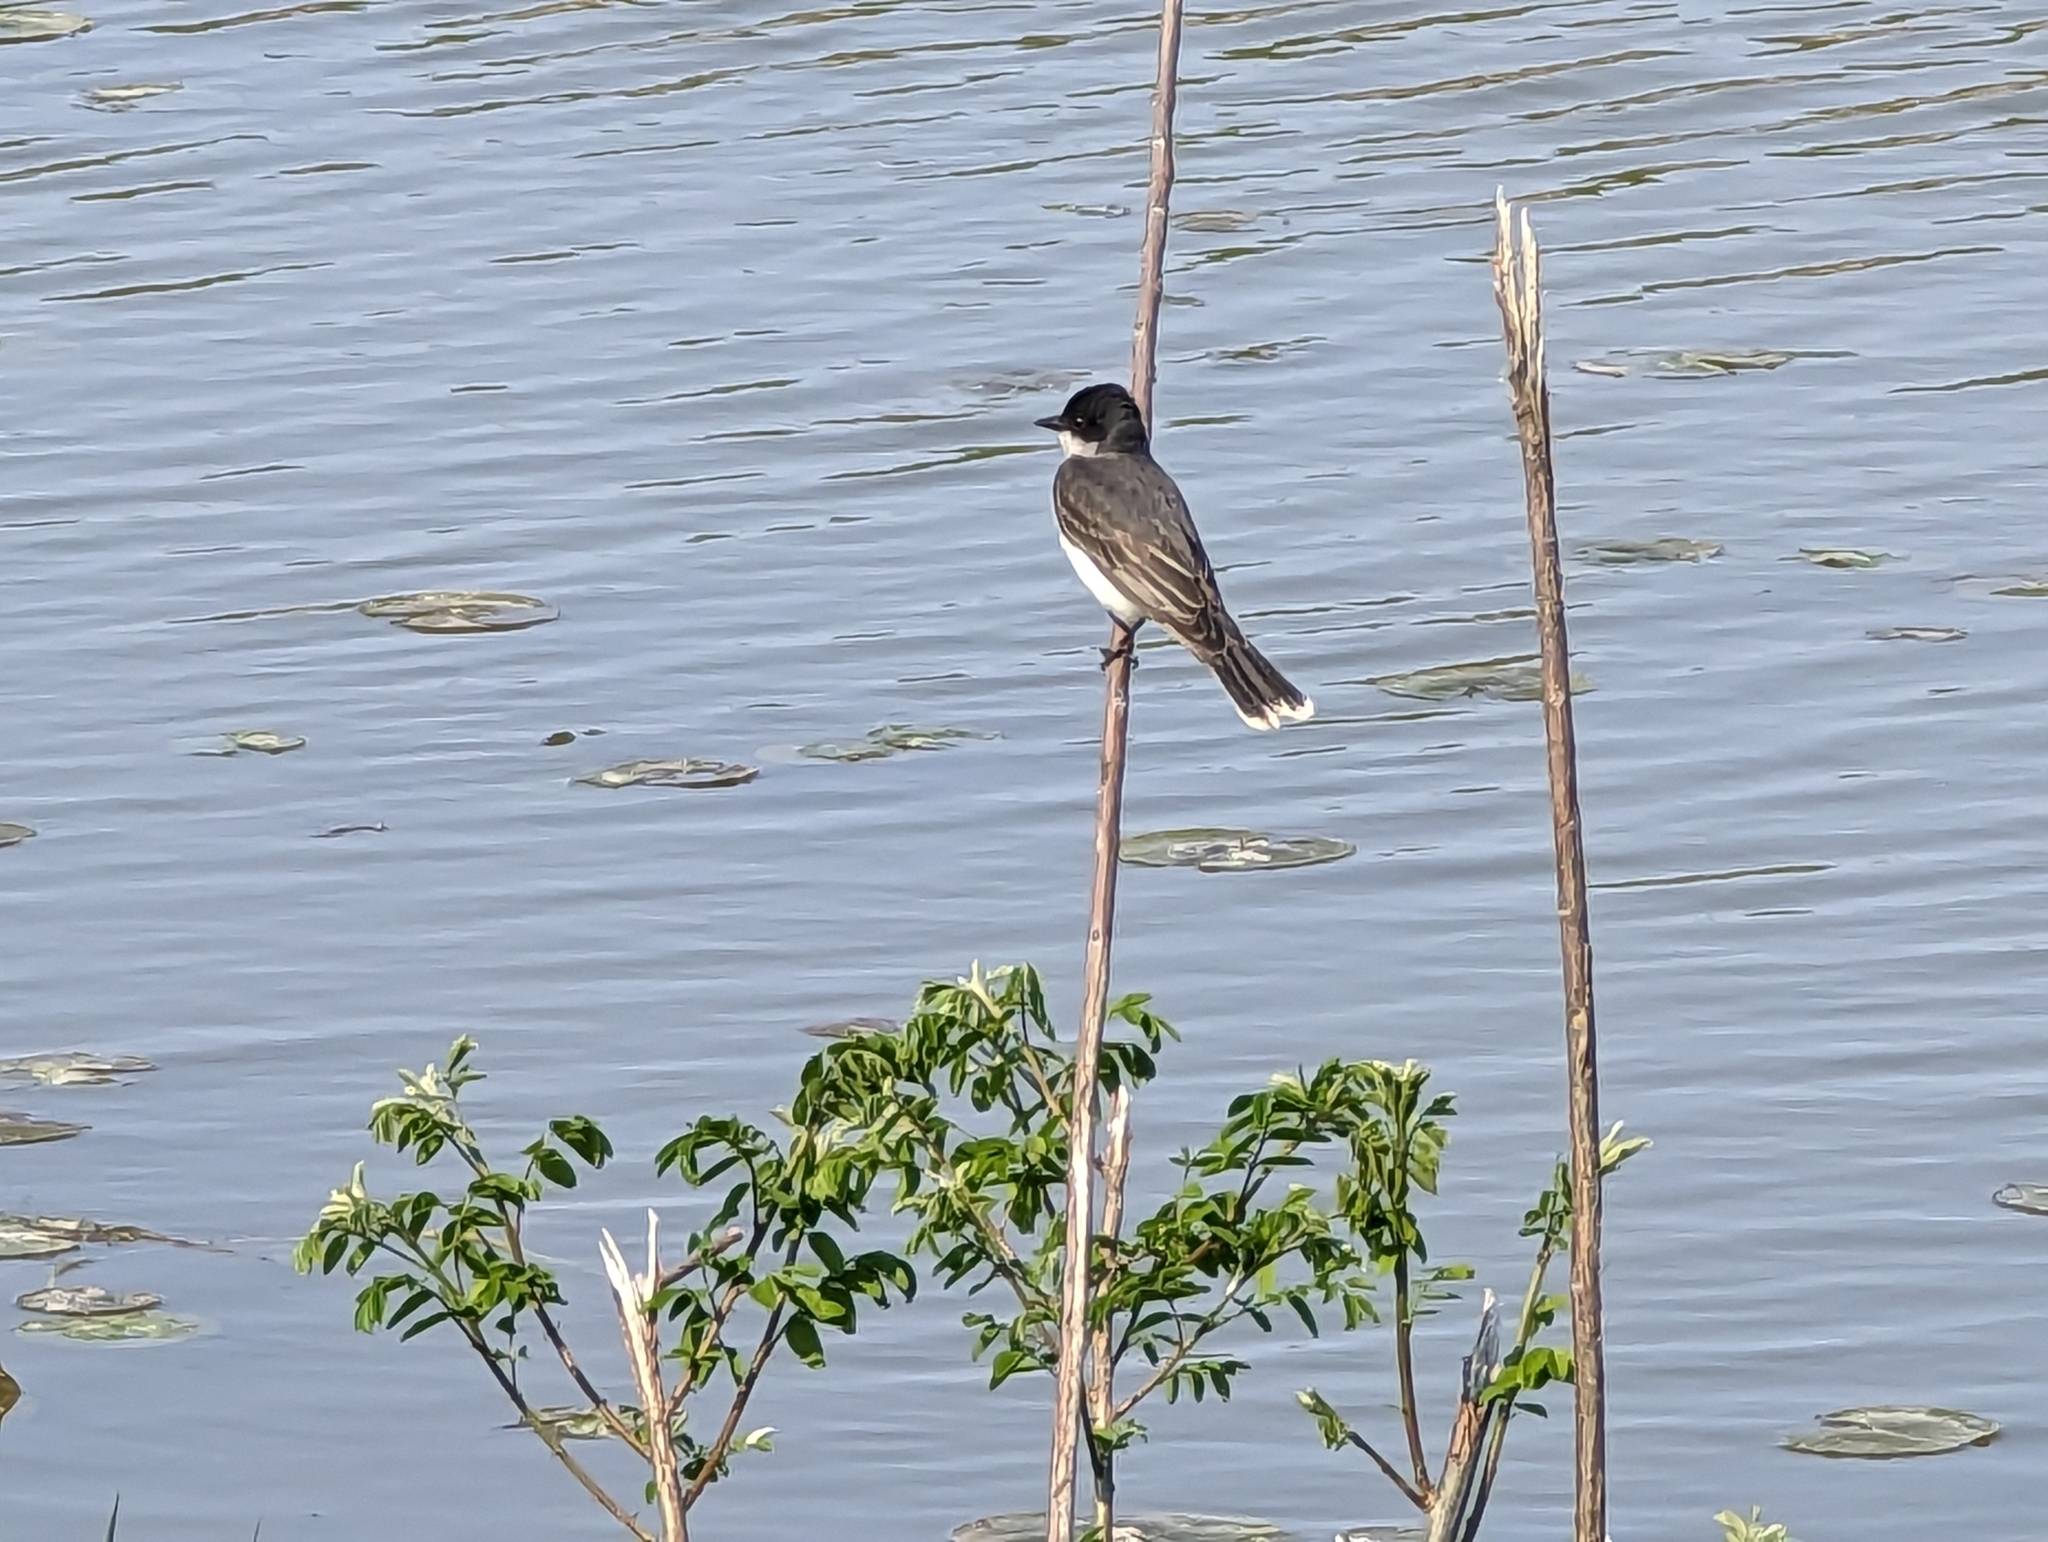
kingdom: Animalia
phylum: Chordata
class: Aves
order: Passeriformes
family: Tyrannidae
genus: Tyrannus
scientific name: Tyrannus tyrannus
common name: Eastern kingbird
